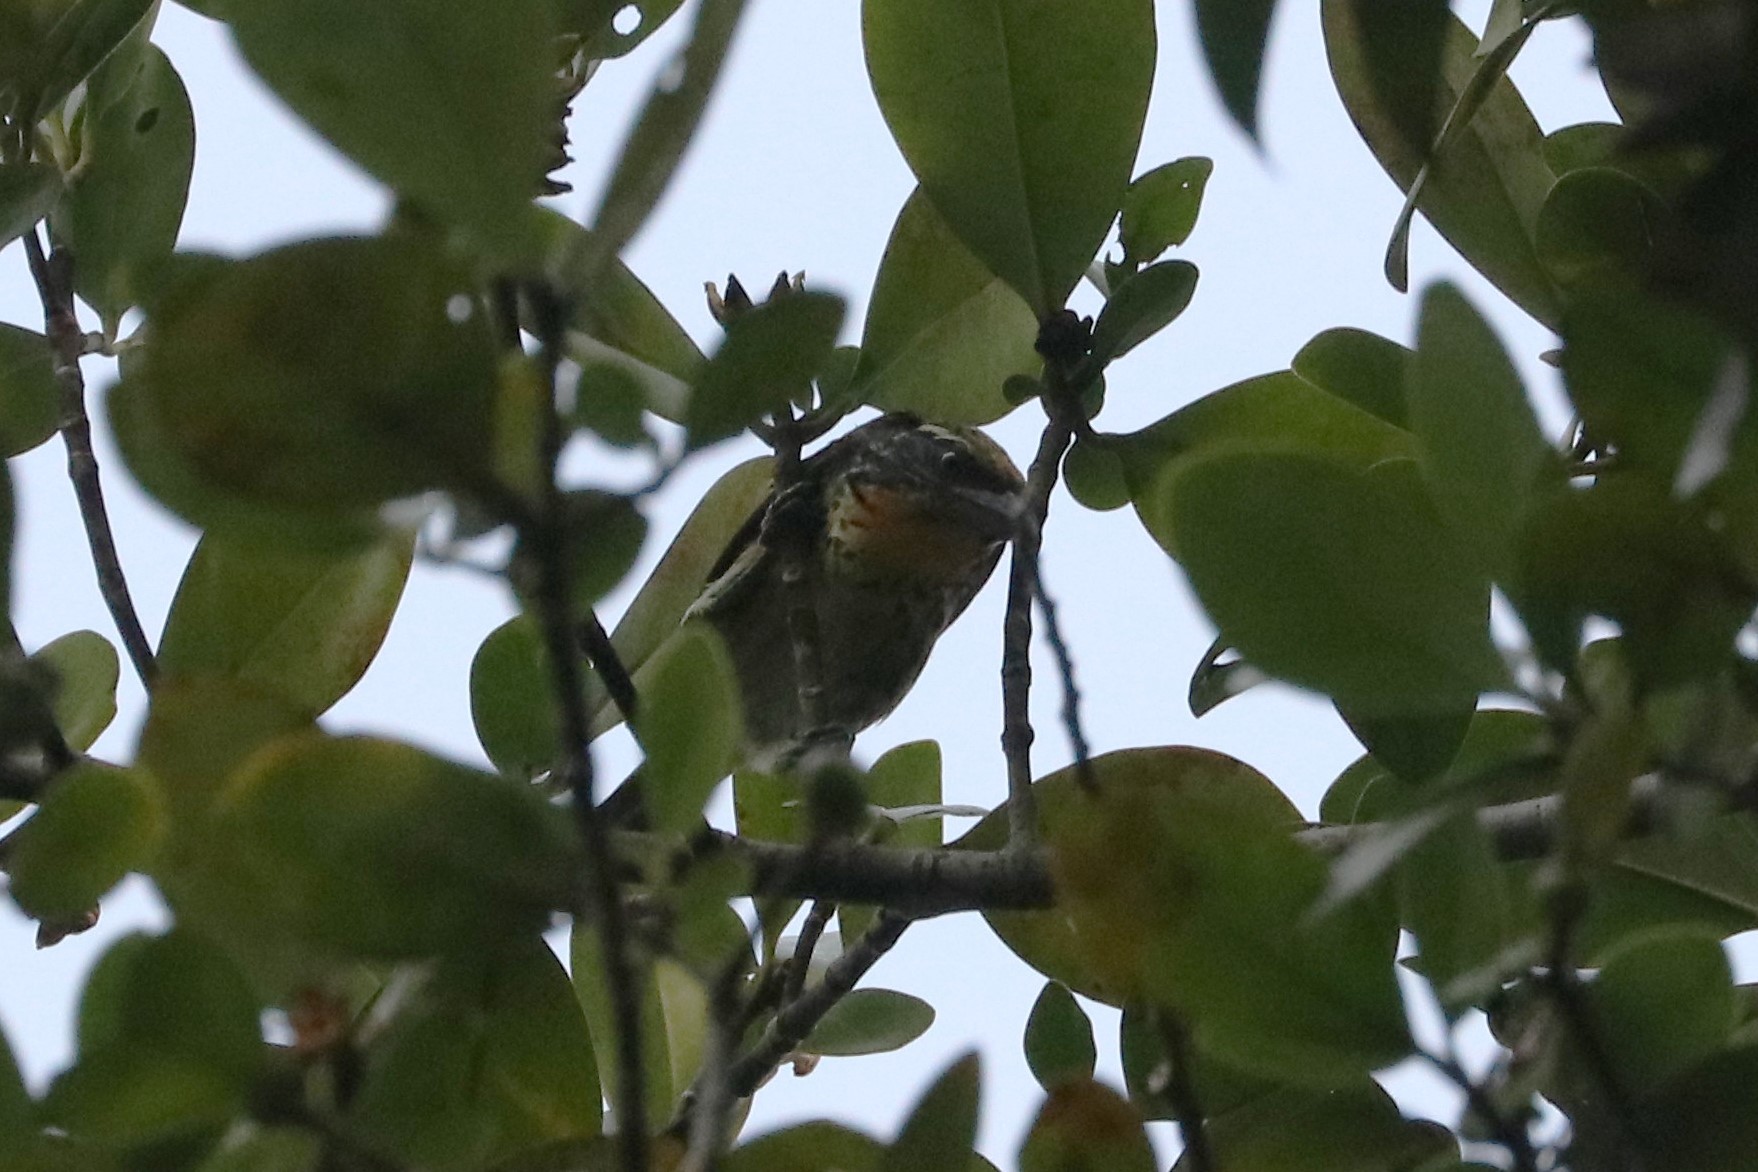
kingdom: Animalia
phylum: Chordata
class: Aves
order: Piciformes
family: Capitonidae
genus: Capito
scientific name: Capito auratus
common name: Gilded barbet
